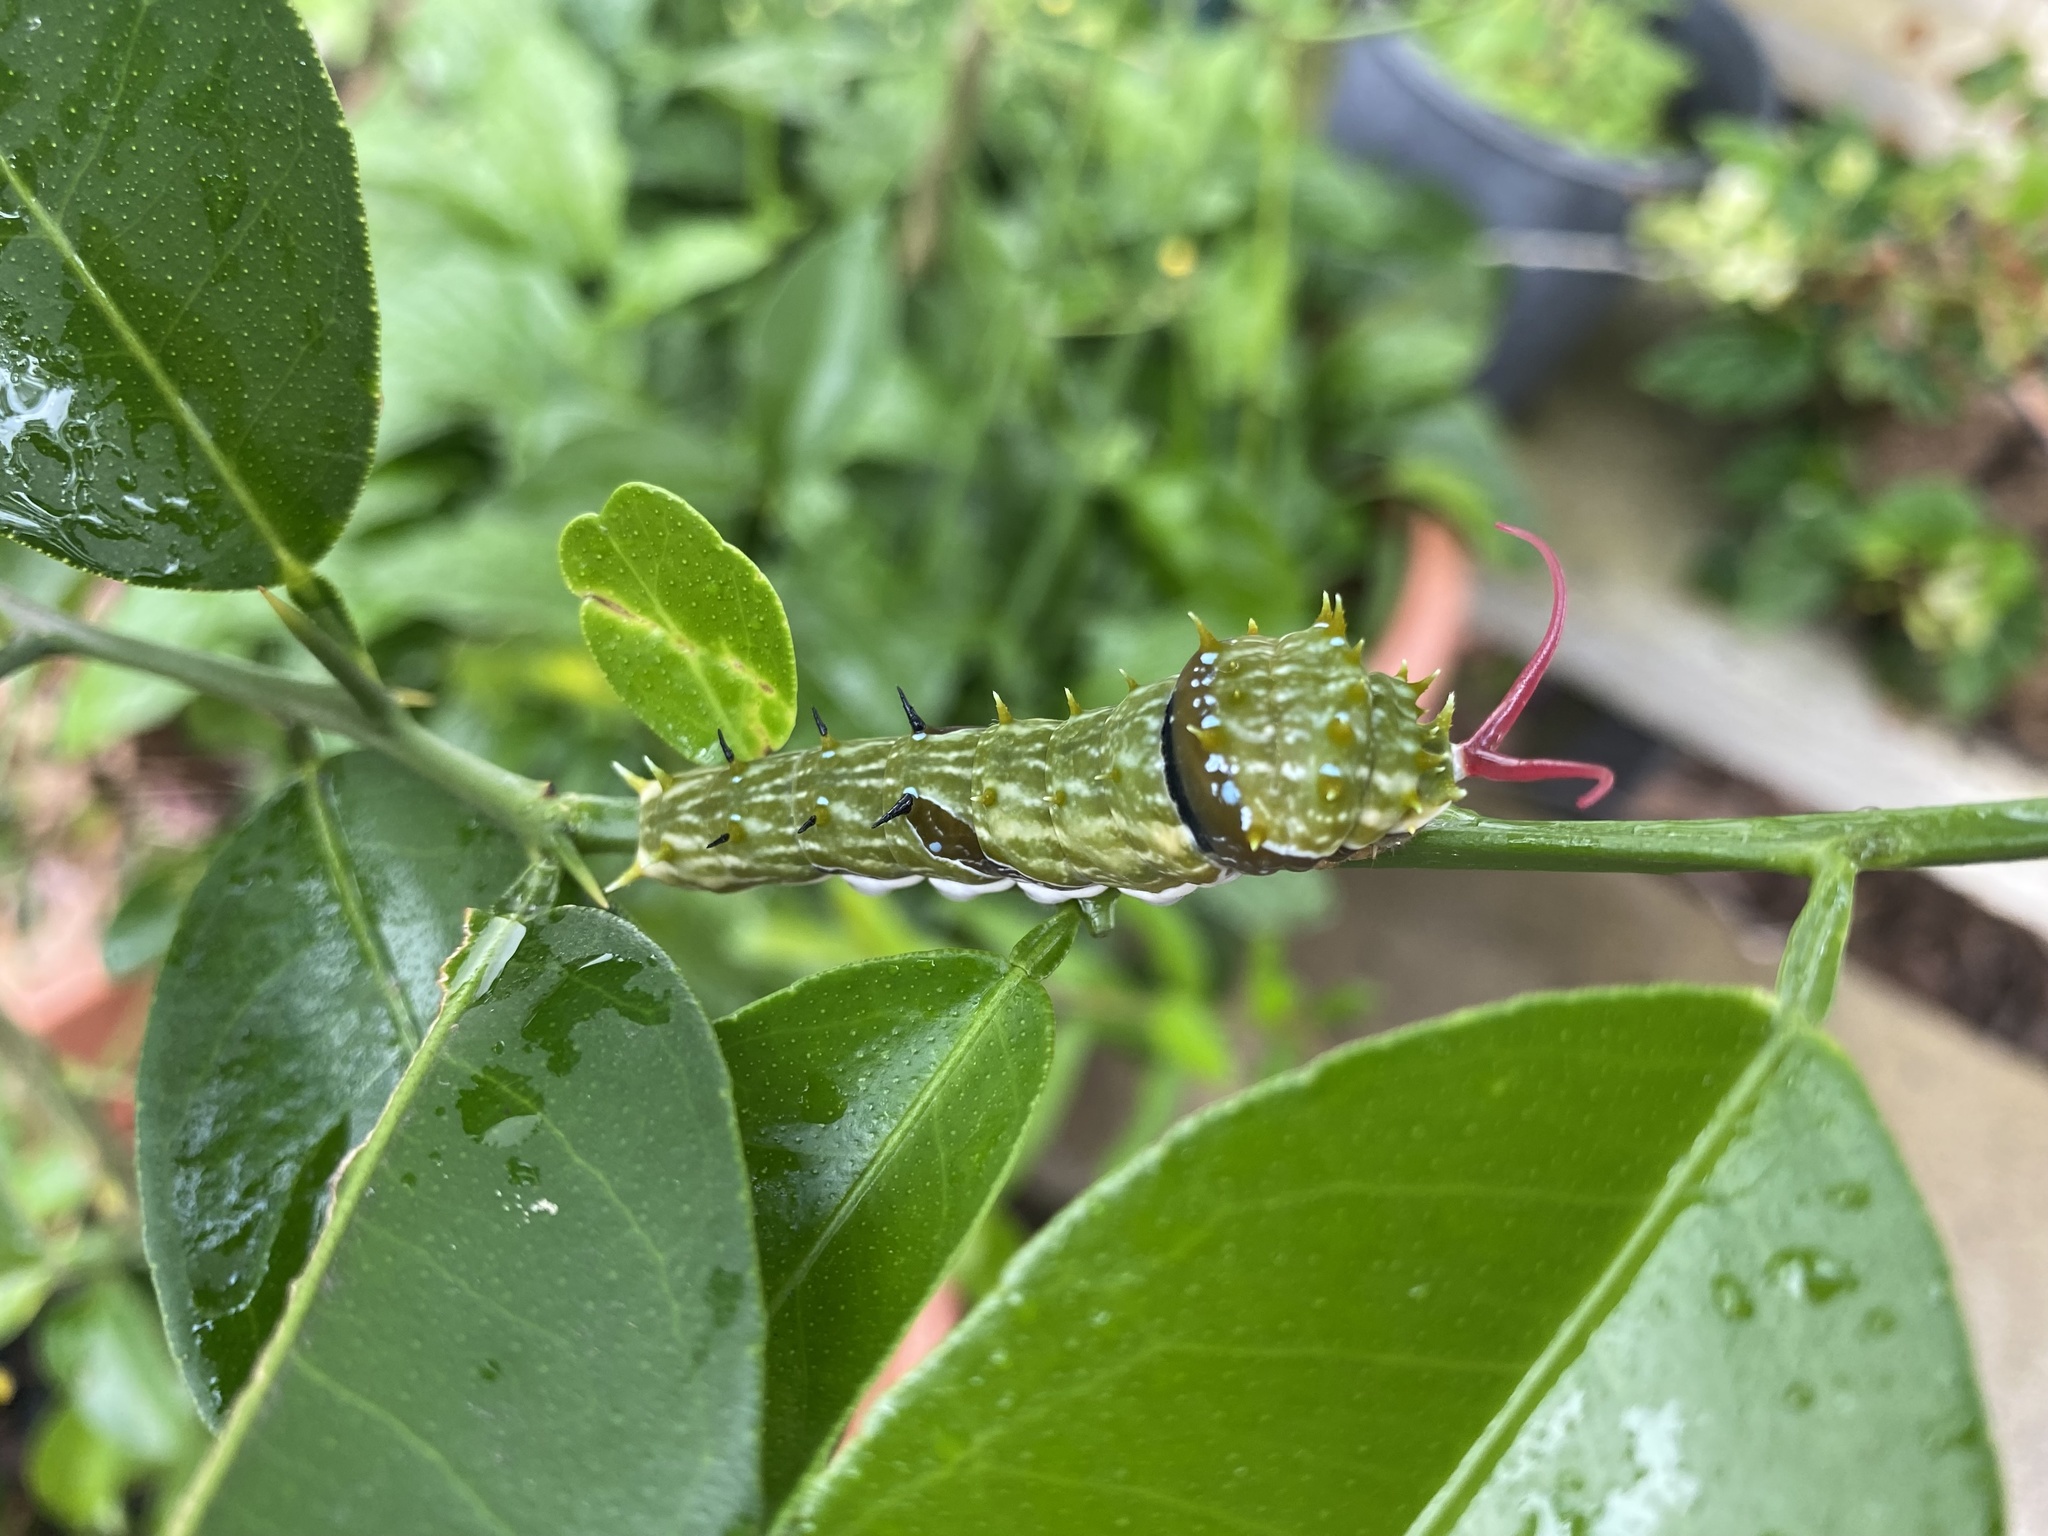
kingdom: Animalia
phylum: Arthropoda
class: Insecta
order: Lepidoptera
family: Papilionidae
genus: Papilio
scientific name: Papilio aegeus
